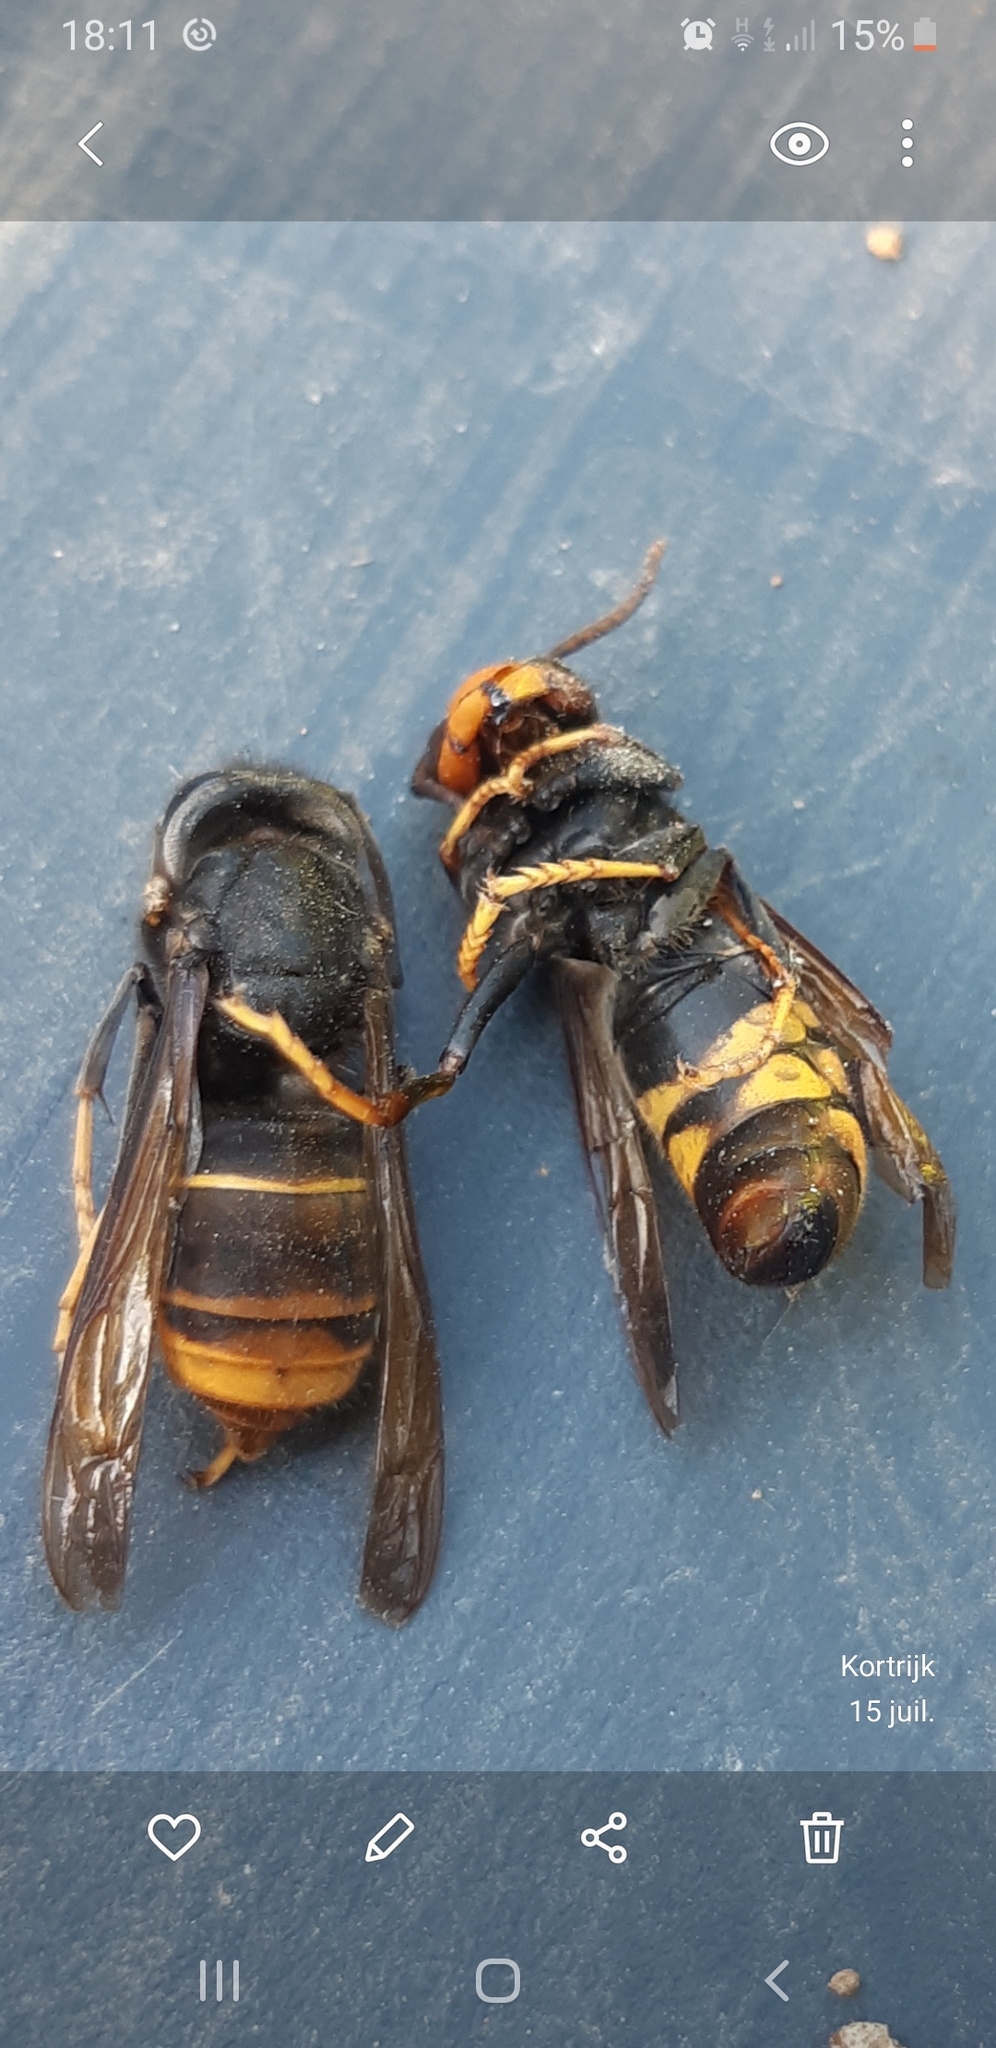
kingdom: Animalia
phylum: Arthropoda
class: Insecta
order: Hymenoptera
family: Vespidae
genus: Vespa
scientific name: Vespa velutina
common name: Asian hornet
